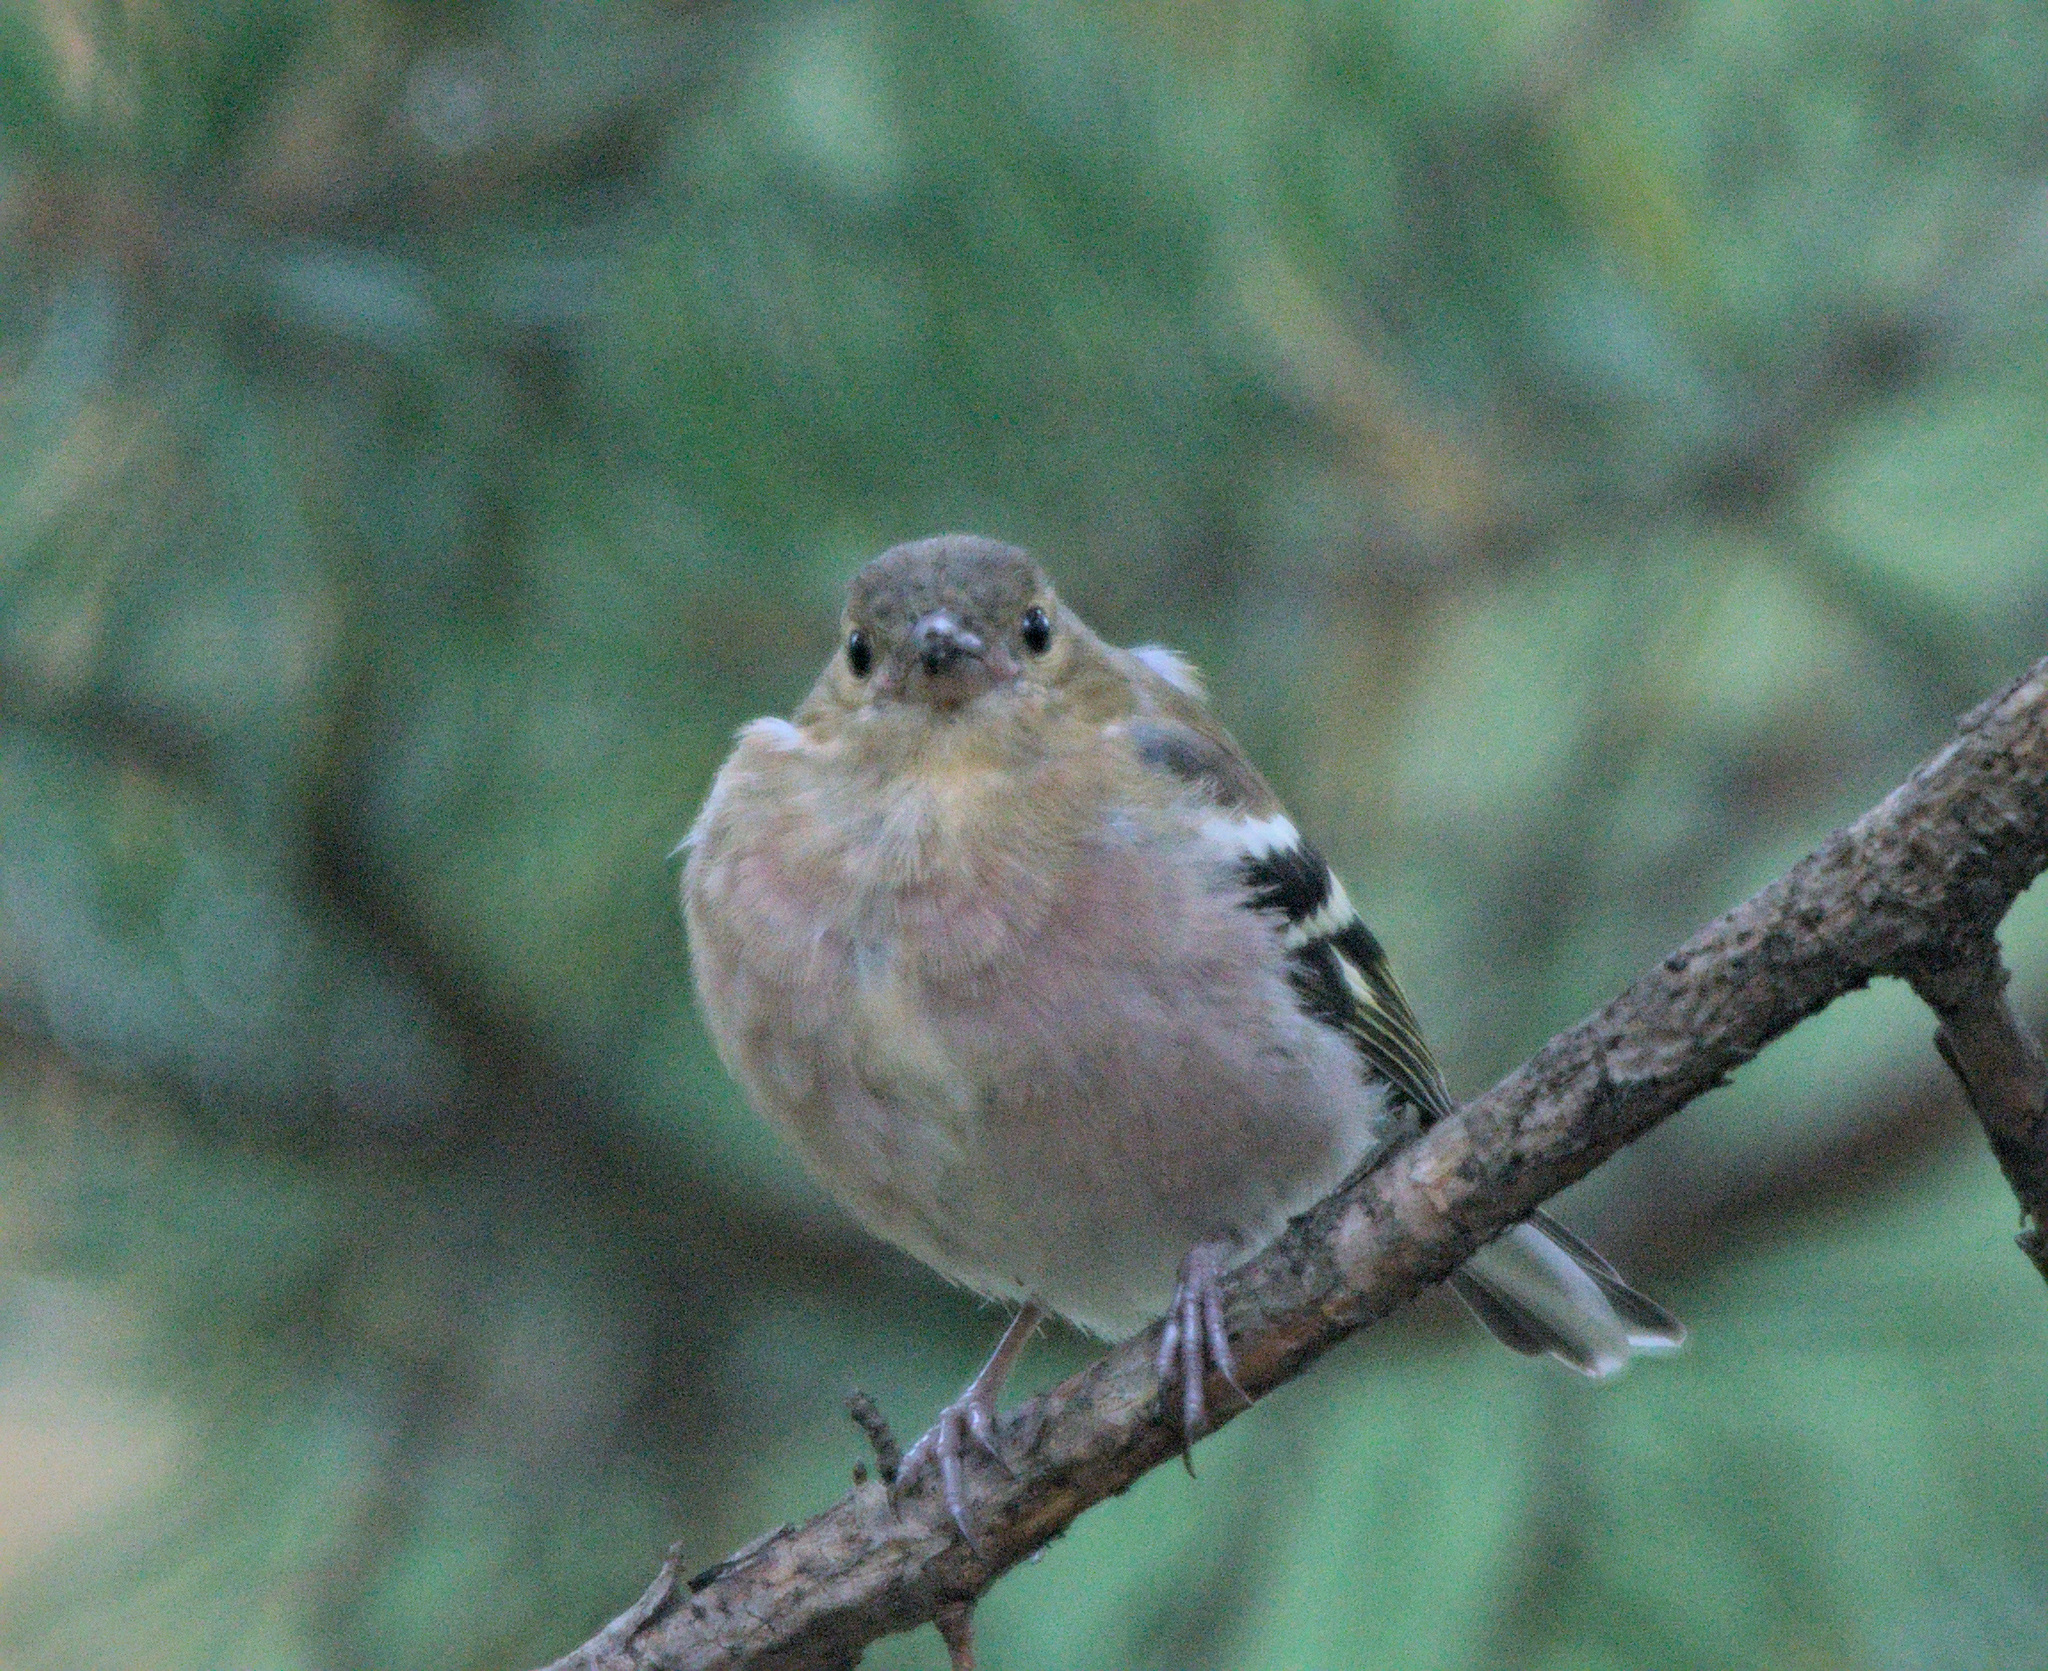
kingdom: Animalia
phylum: Chordata
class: Aves
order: Passeriformes
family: Fringillidae
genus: Fringilla
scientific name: Fringilla coelebs
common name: Common chaffinch
